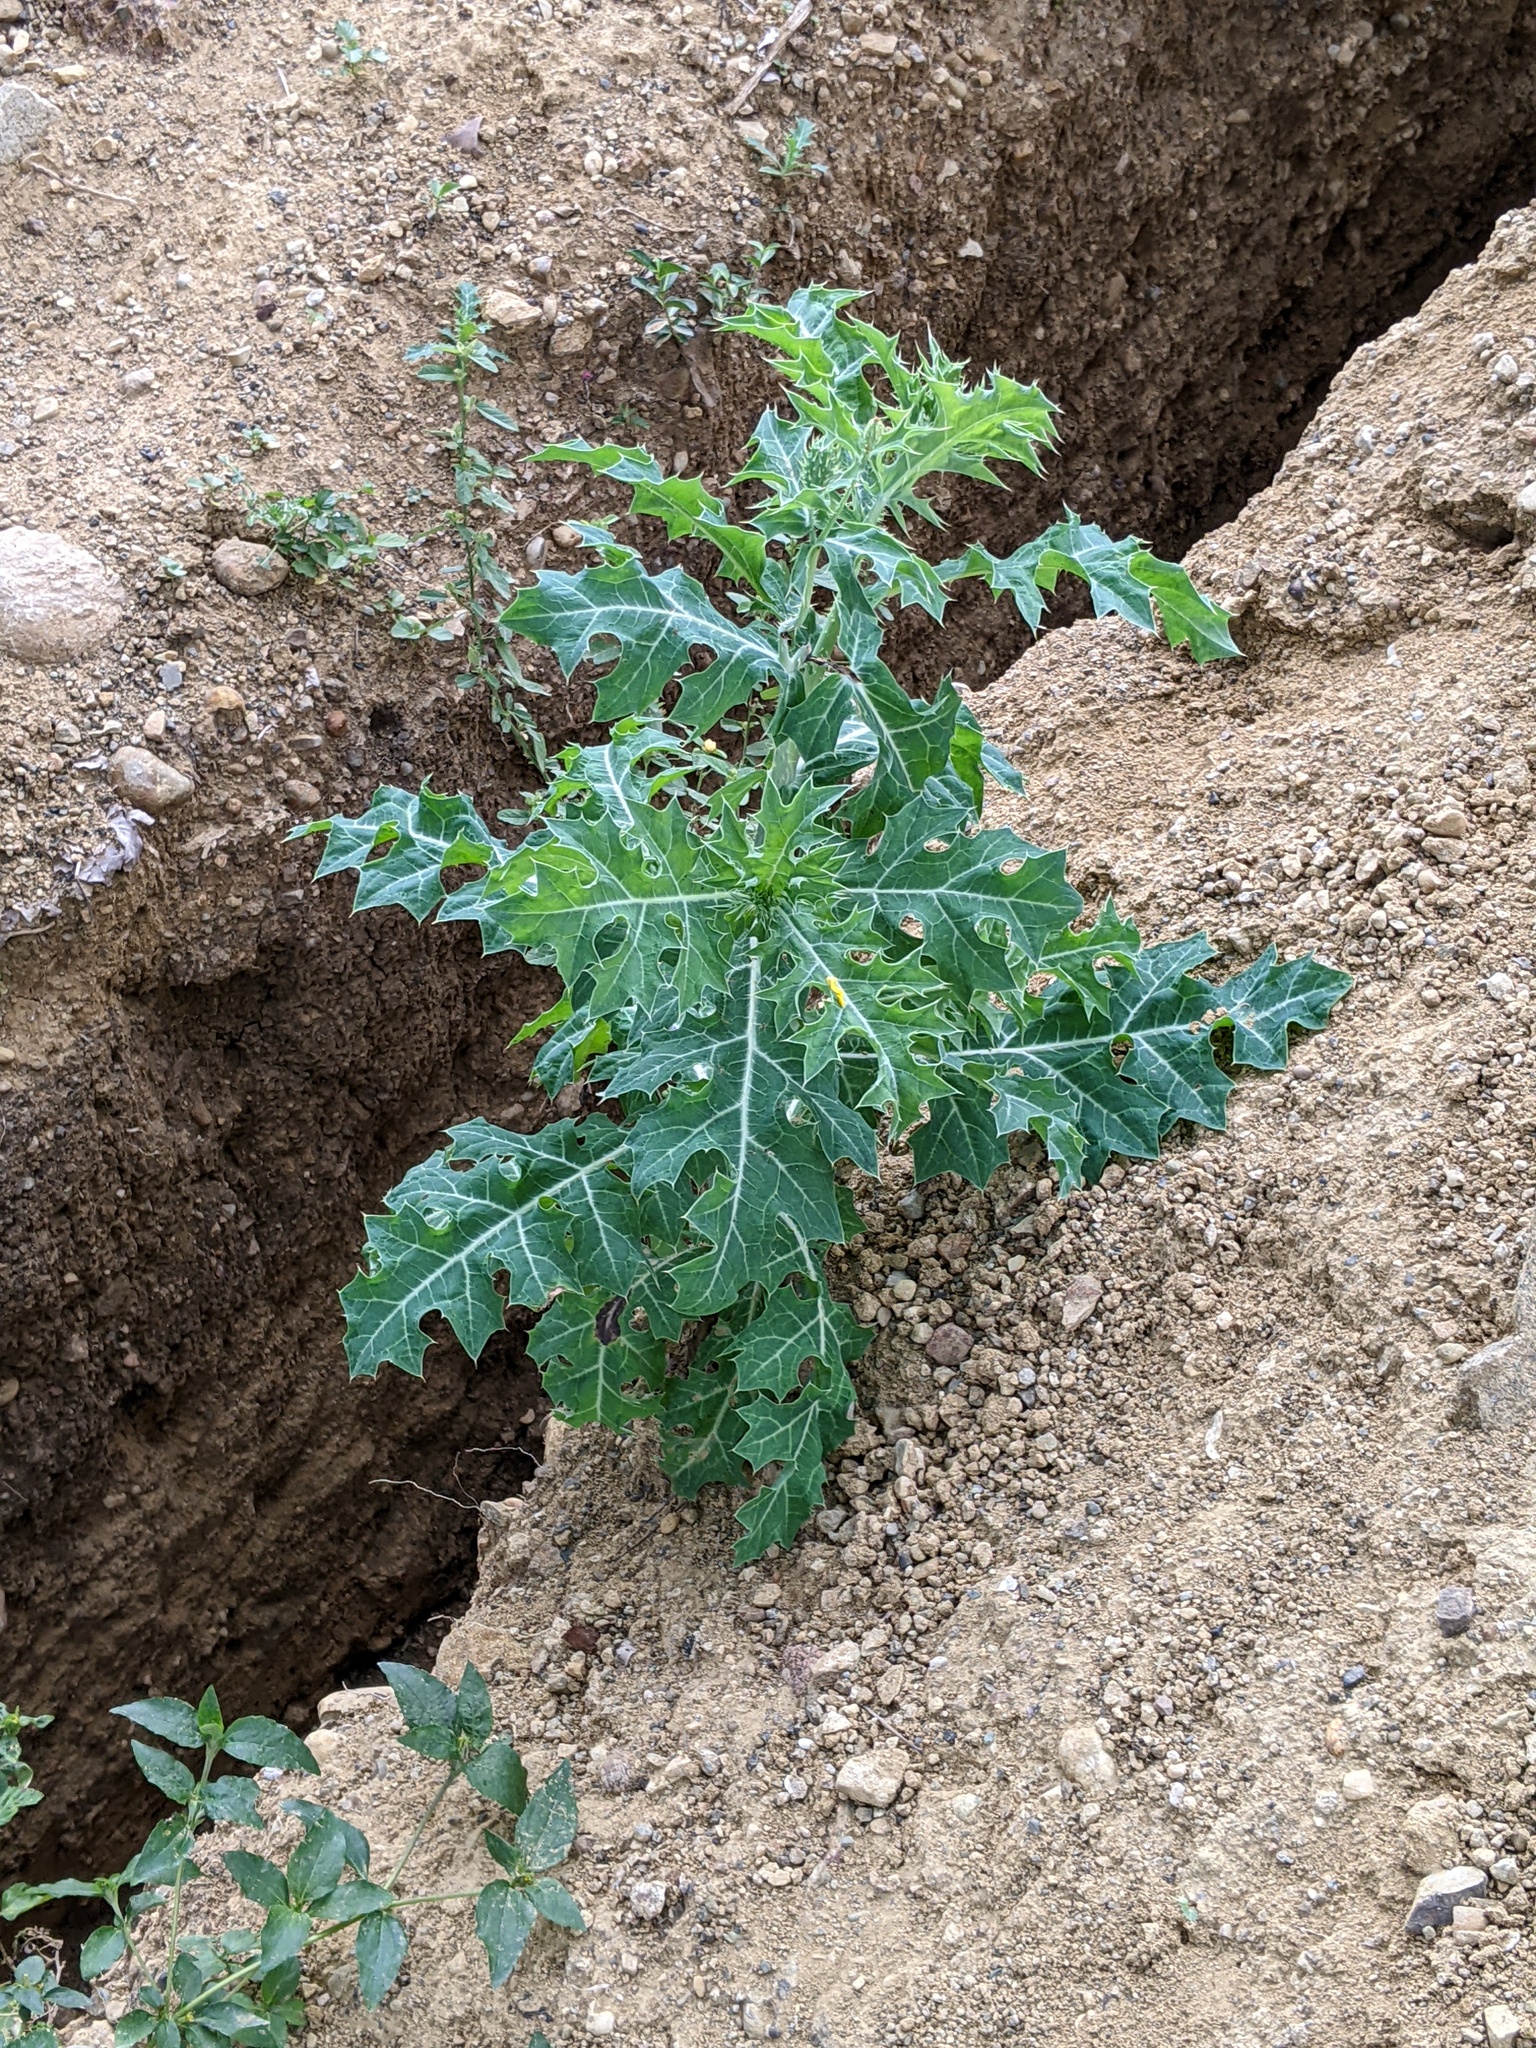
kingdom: Plantae
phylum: Tracheophyta
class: Magnoliopsida
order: Ranunculales
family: Papaveraceae
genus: Argemone
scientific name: Argemone mexicana
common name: Mexican poppy
